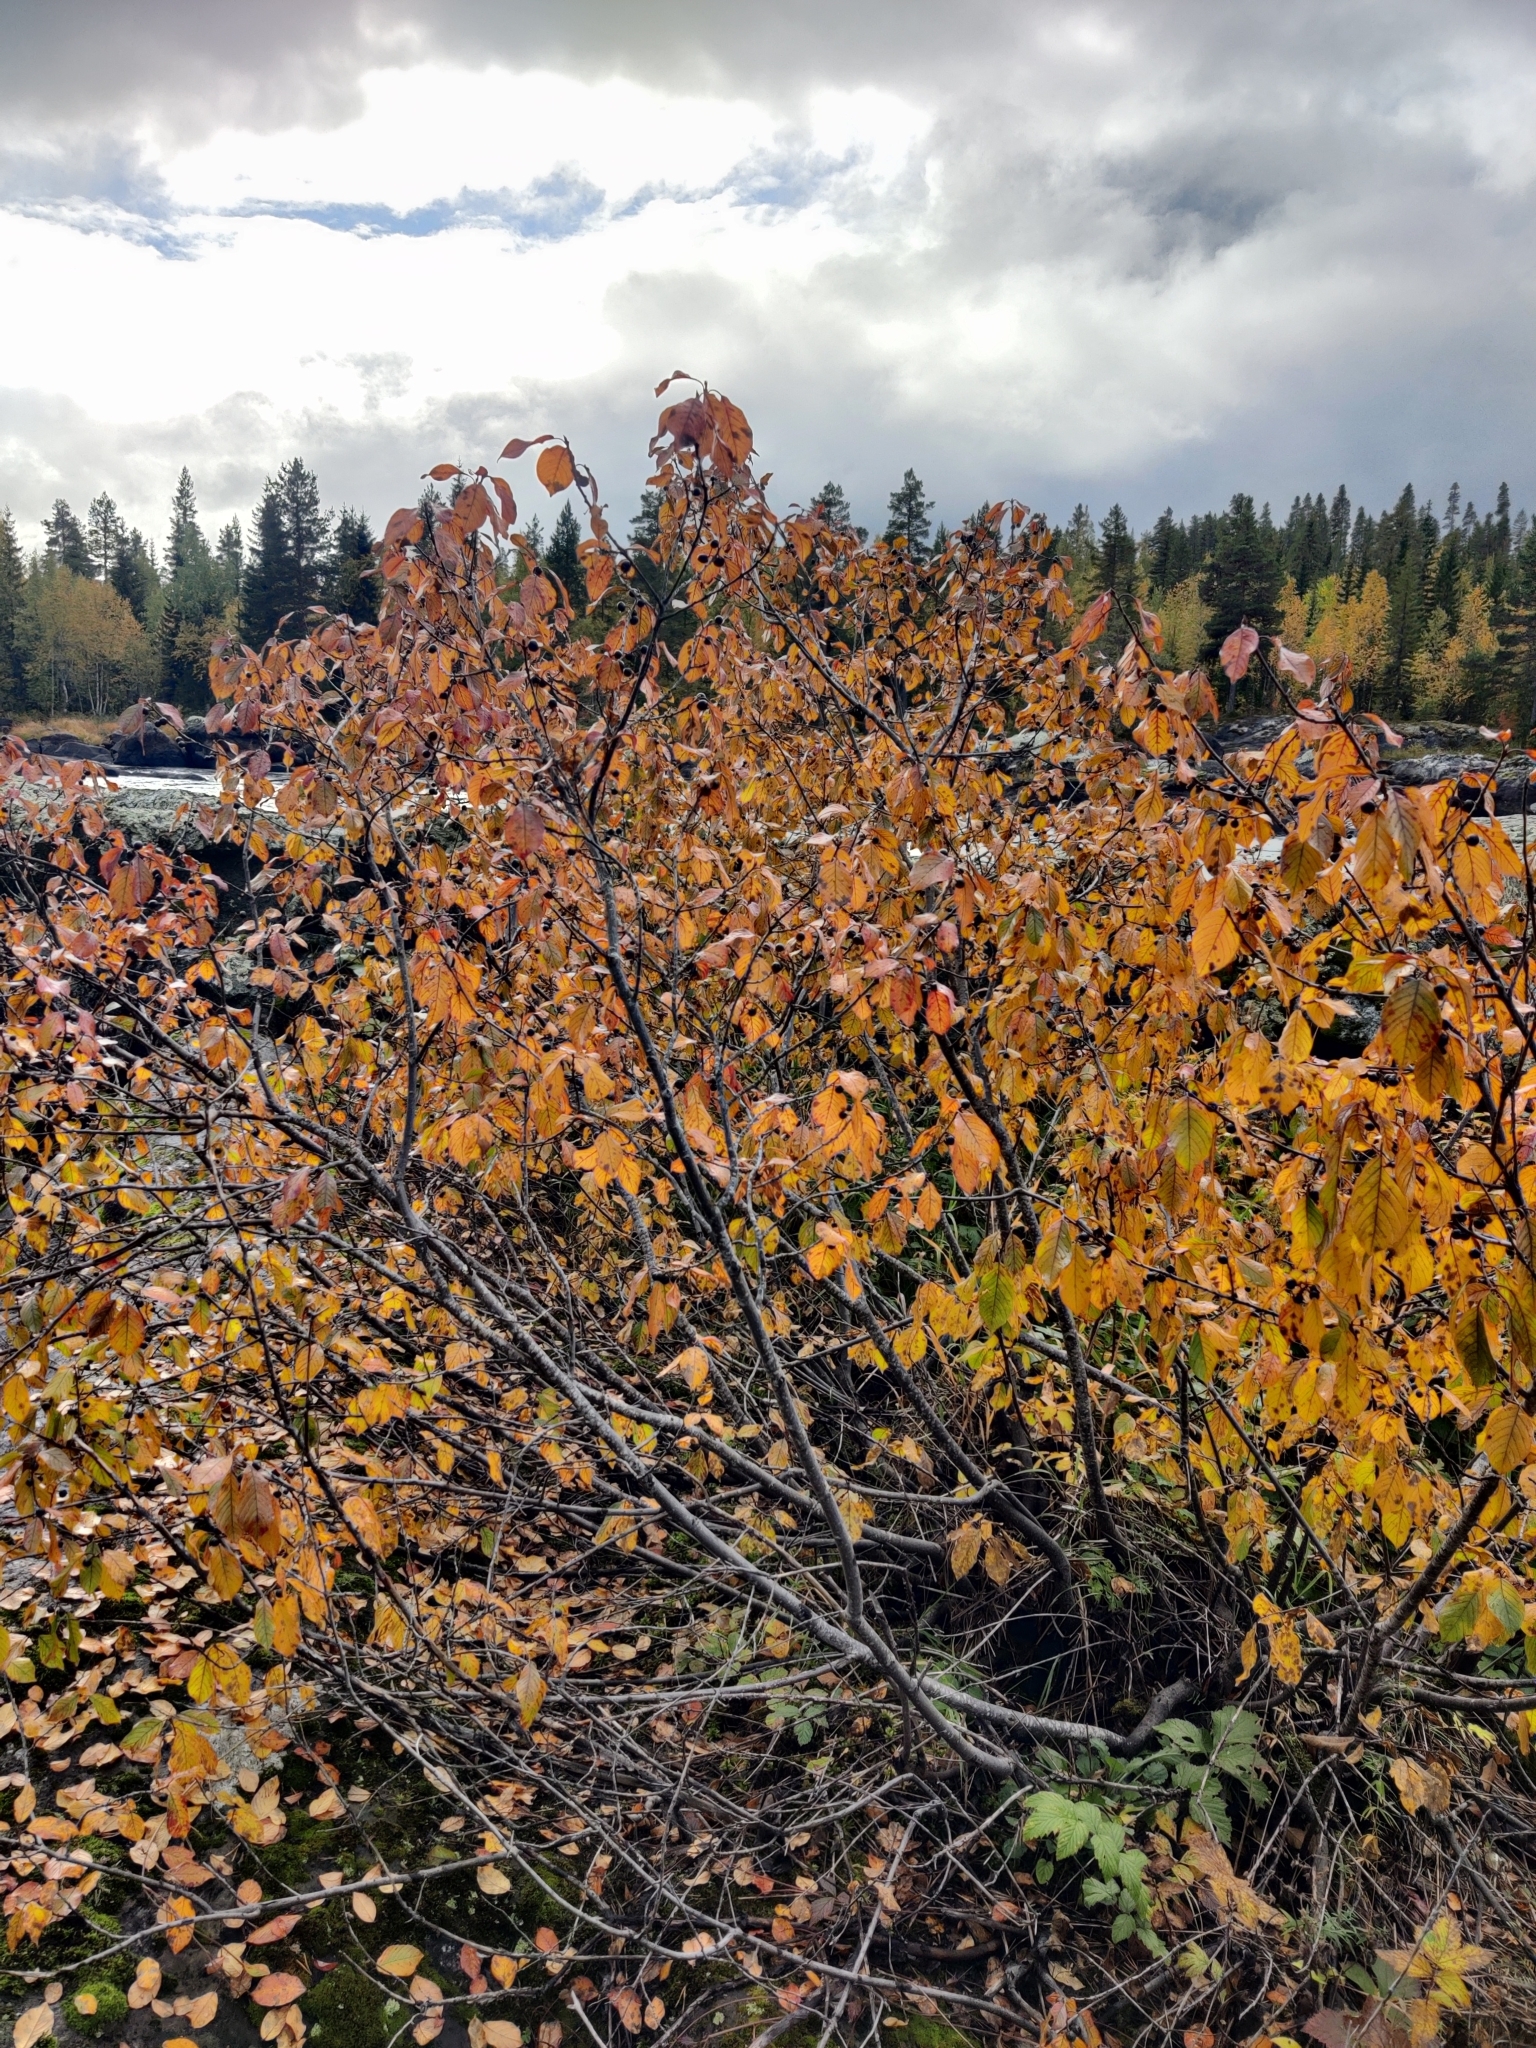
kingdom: Plantae
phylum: Tracheophyta
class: Magnoliopsida
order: Rosales
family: Rhamnaceae
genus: Frangula
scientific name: Frangula alnus
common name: Alder buckthorn
